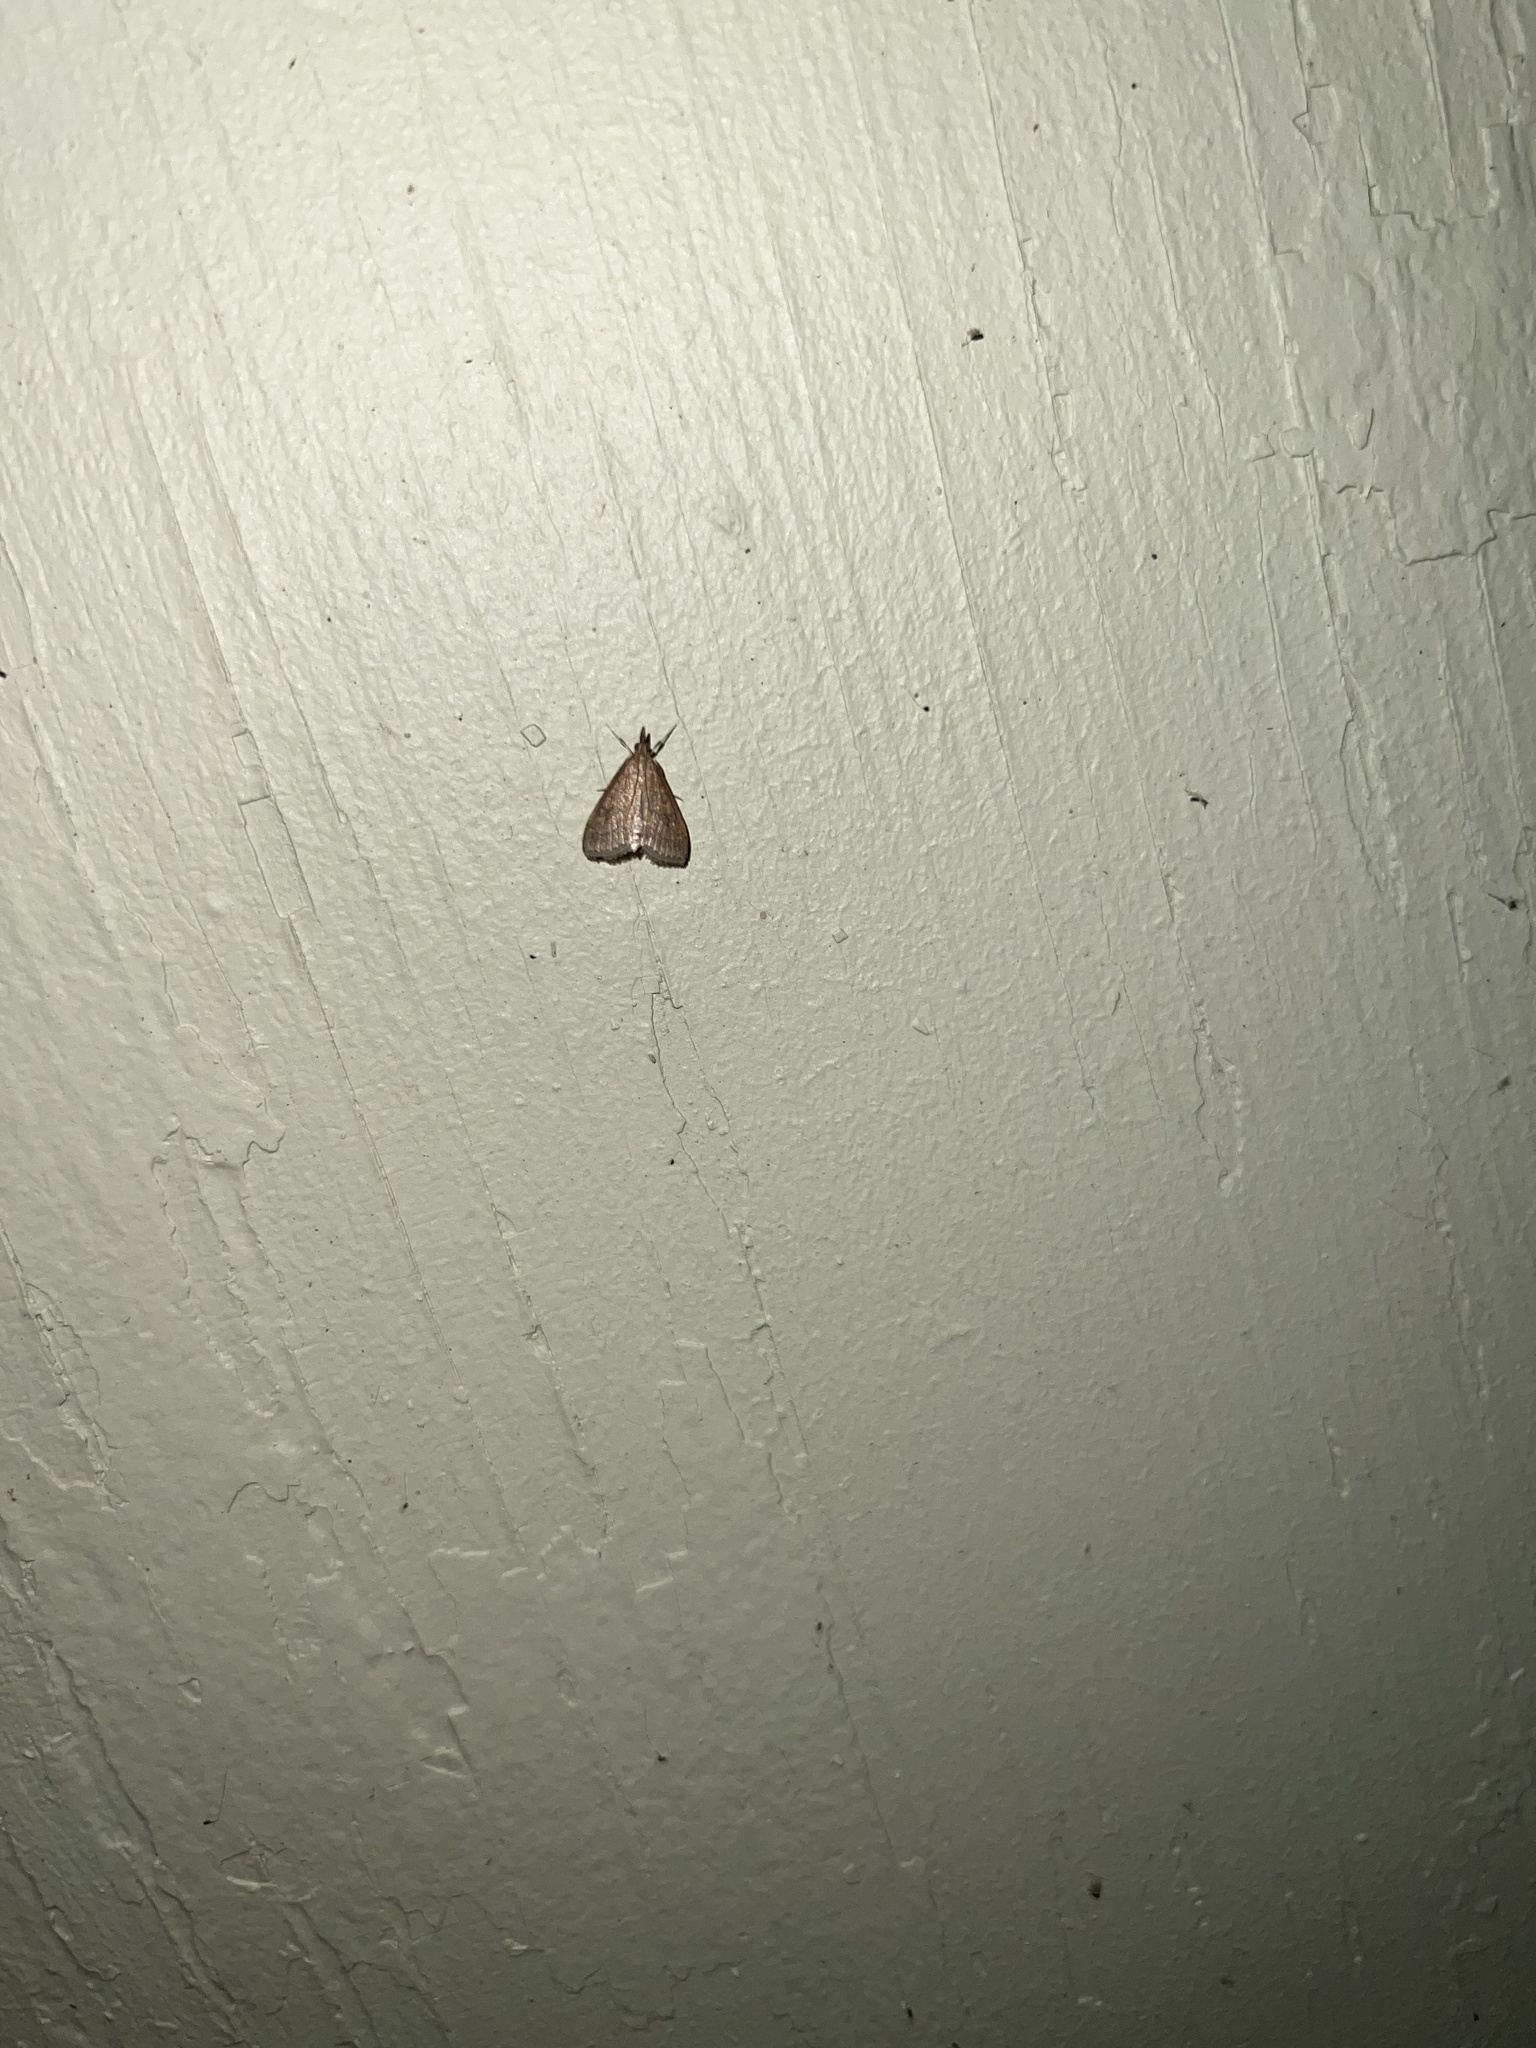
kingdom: Animalia
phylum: Arthropoda
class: Insecta
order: Lepidoptera
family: Crambidae
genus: Udea
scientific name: Udea rubigalis
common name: Celery leaftier moth
